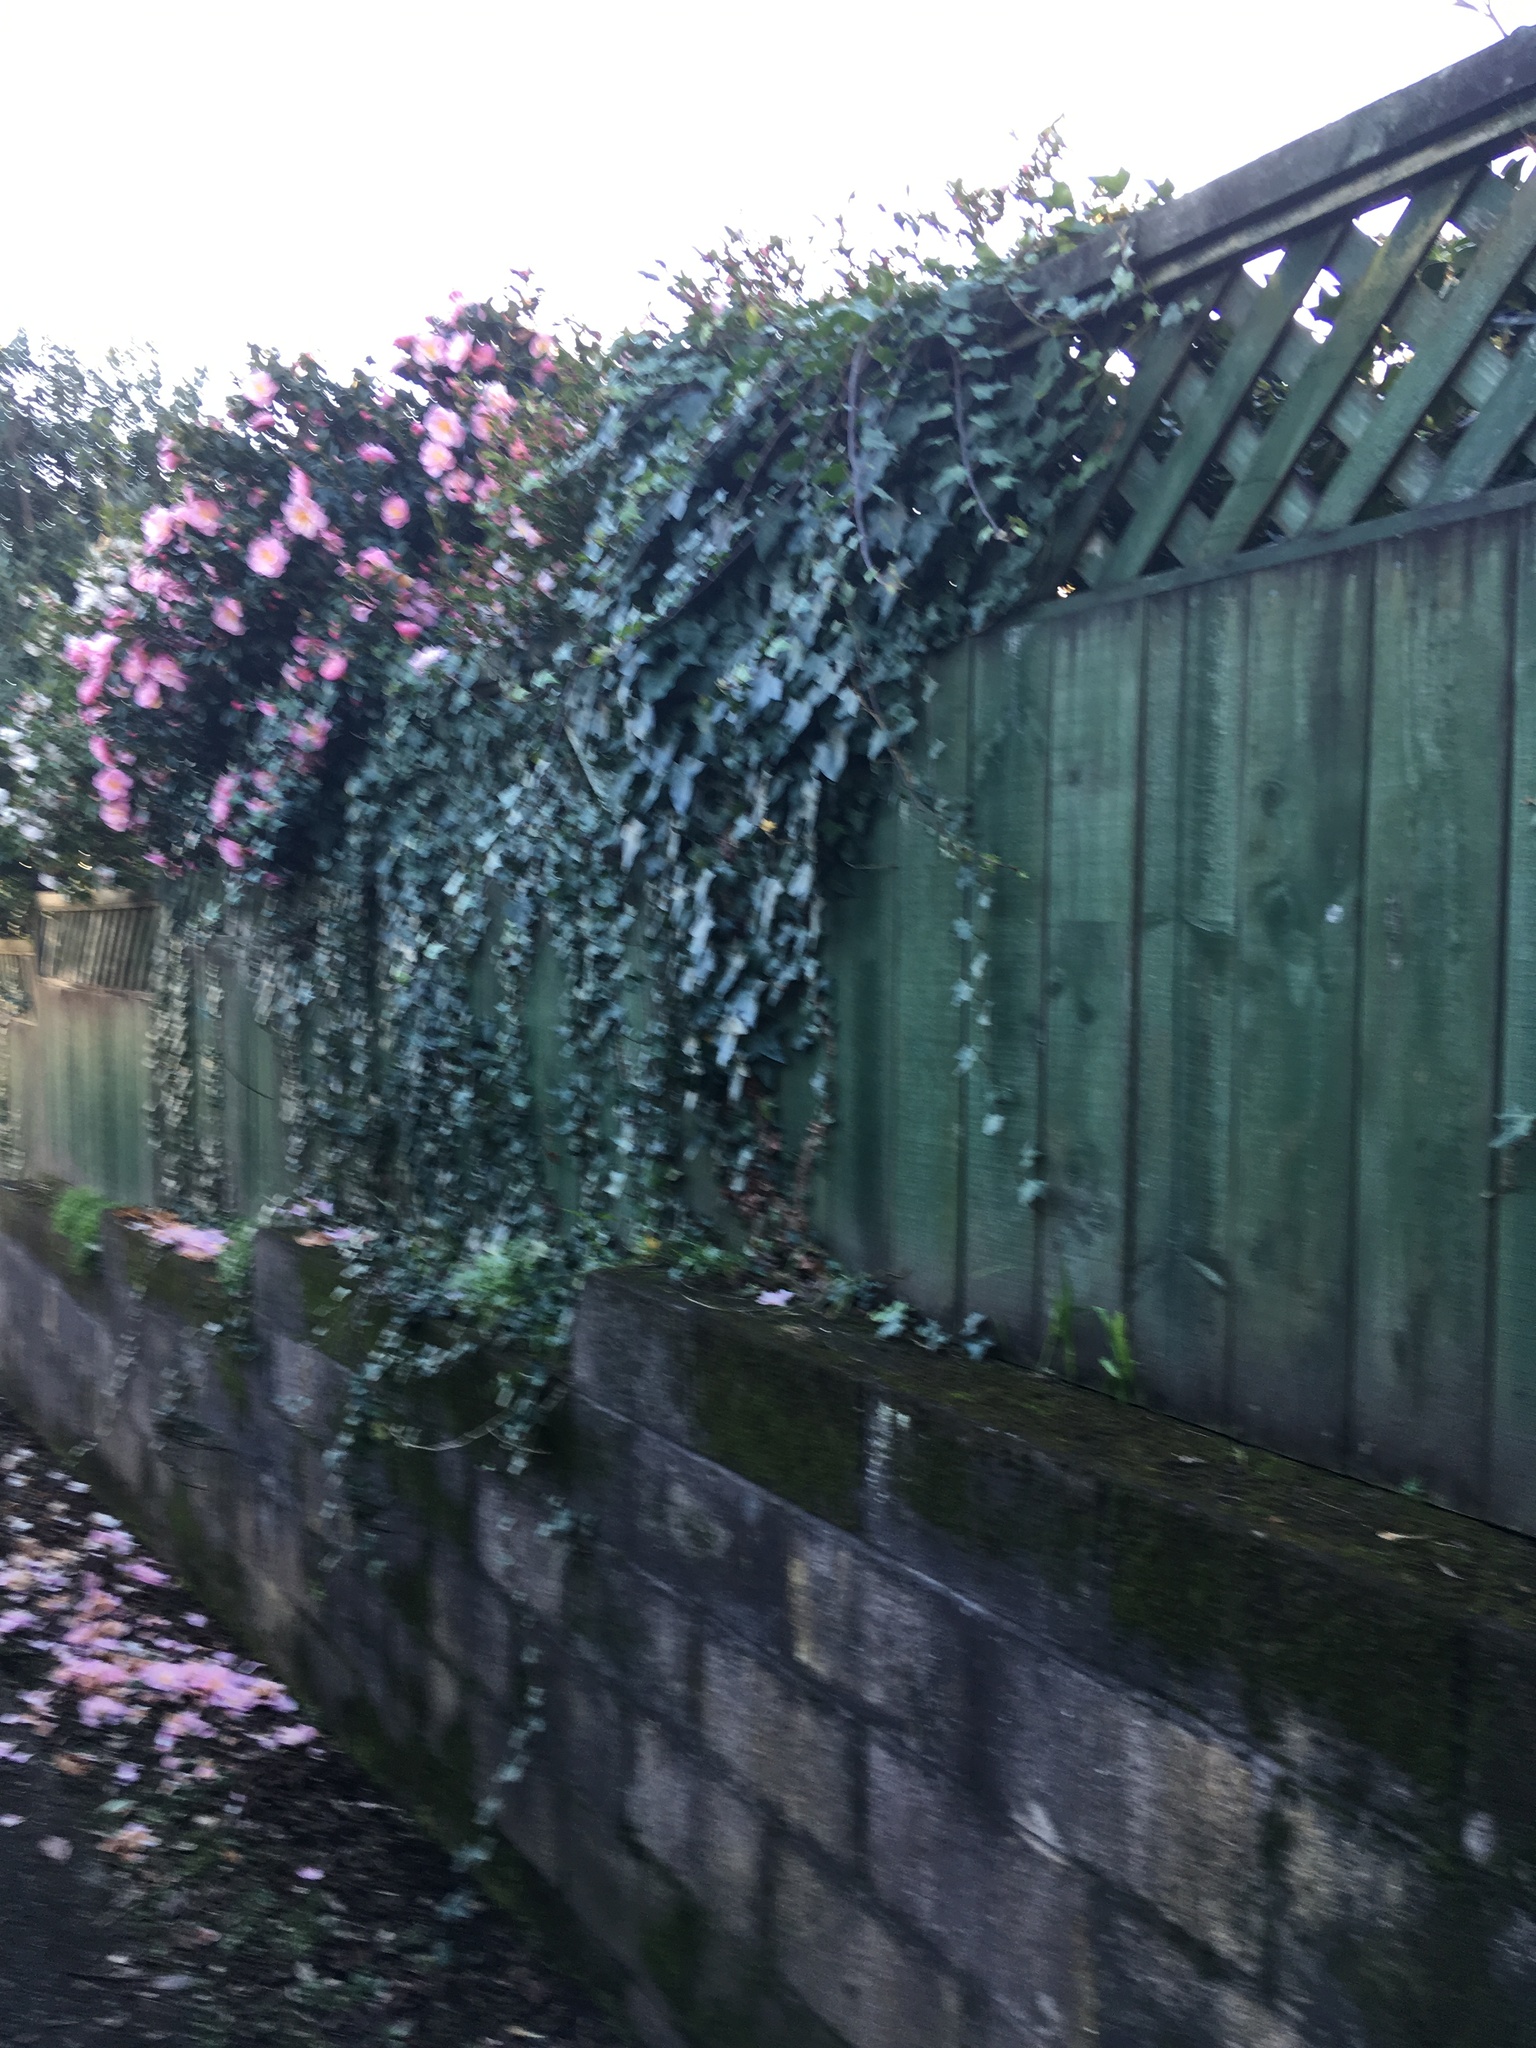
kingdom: Plantae
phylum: Tracheophyta
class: Magnoliopsida
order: Apiales
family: Araliaceae
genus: Hedera
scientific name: Hedera helix
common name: Ivy
